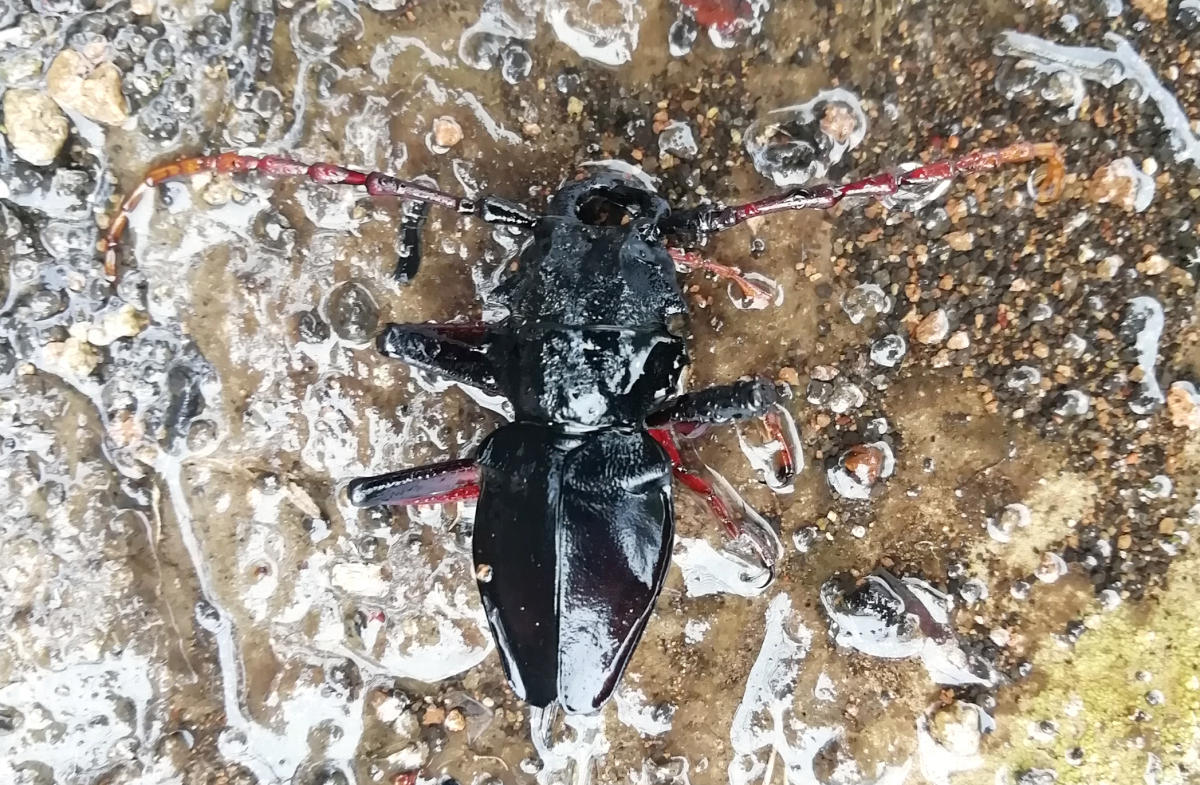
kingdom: Animalia
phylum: Arthropoda
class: Insecta
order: Coleoptera
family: Cerambycidae
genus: Prionacalus
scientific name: Prionacalus cacicus
